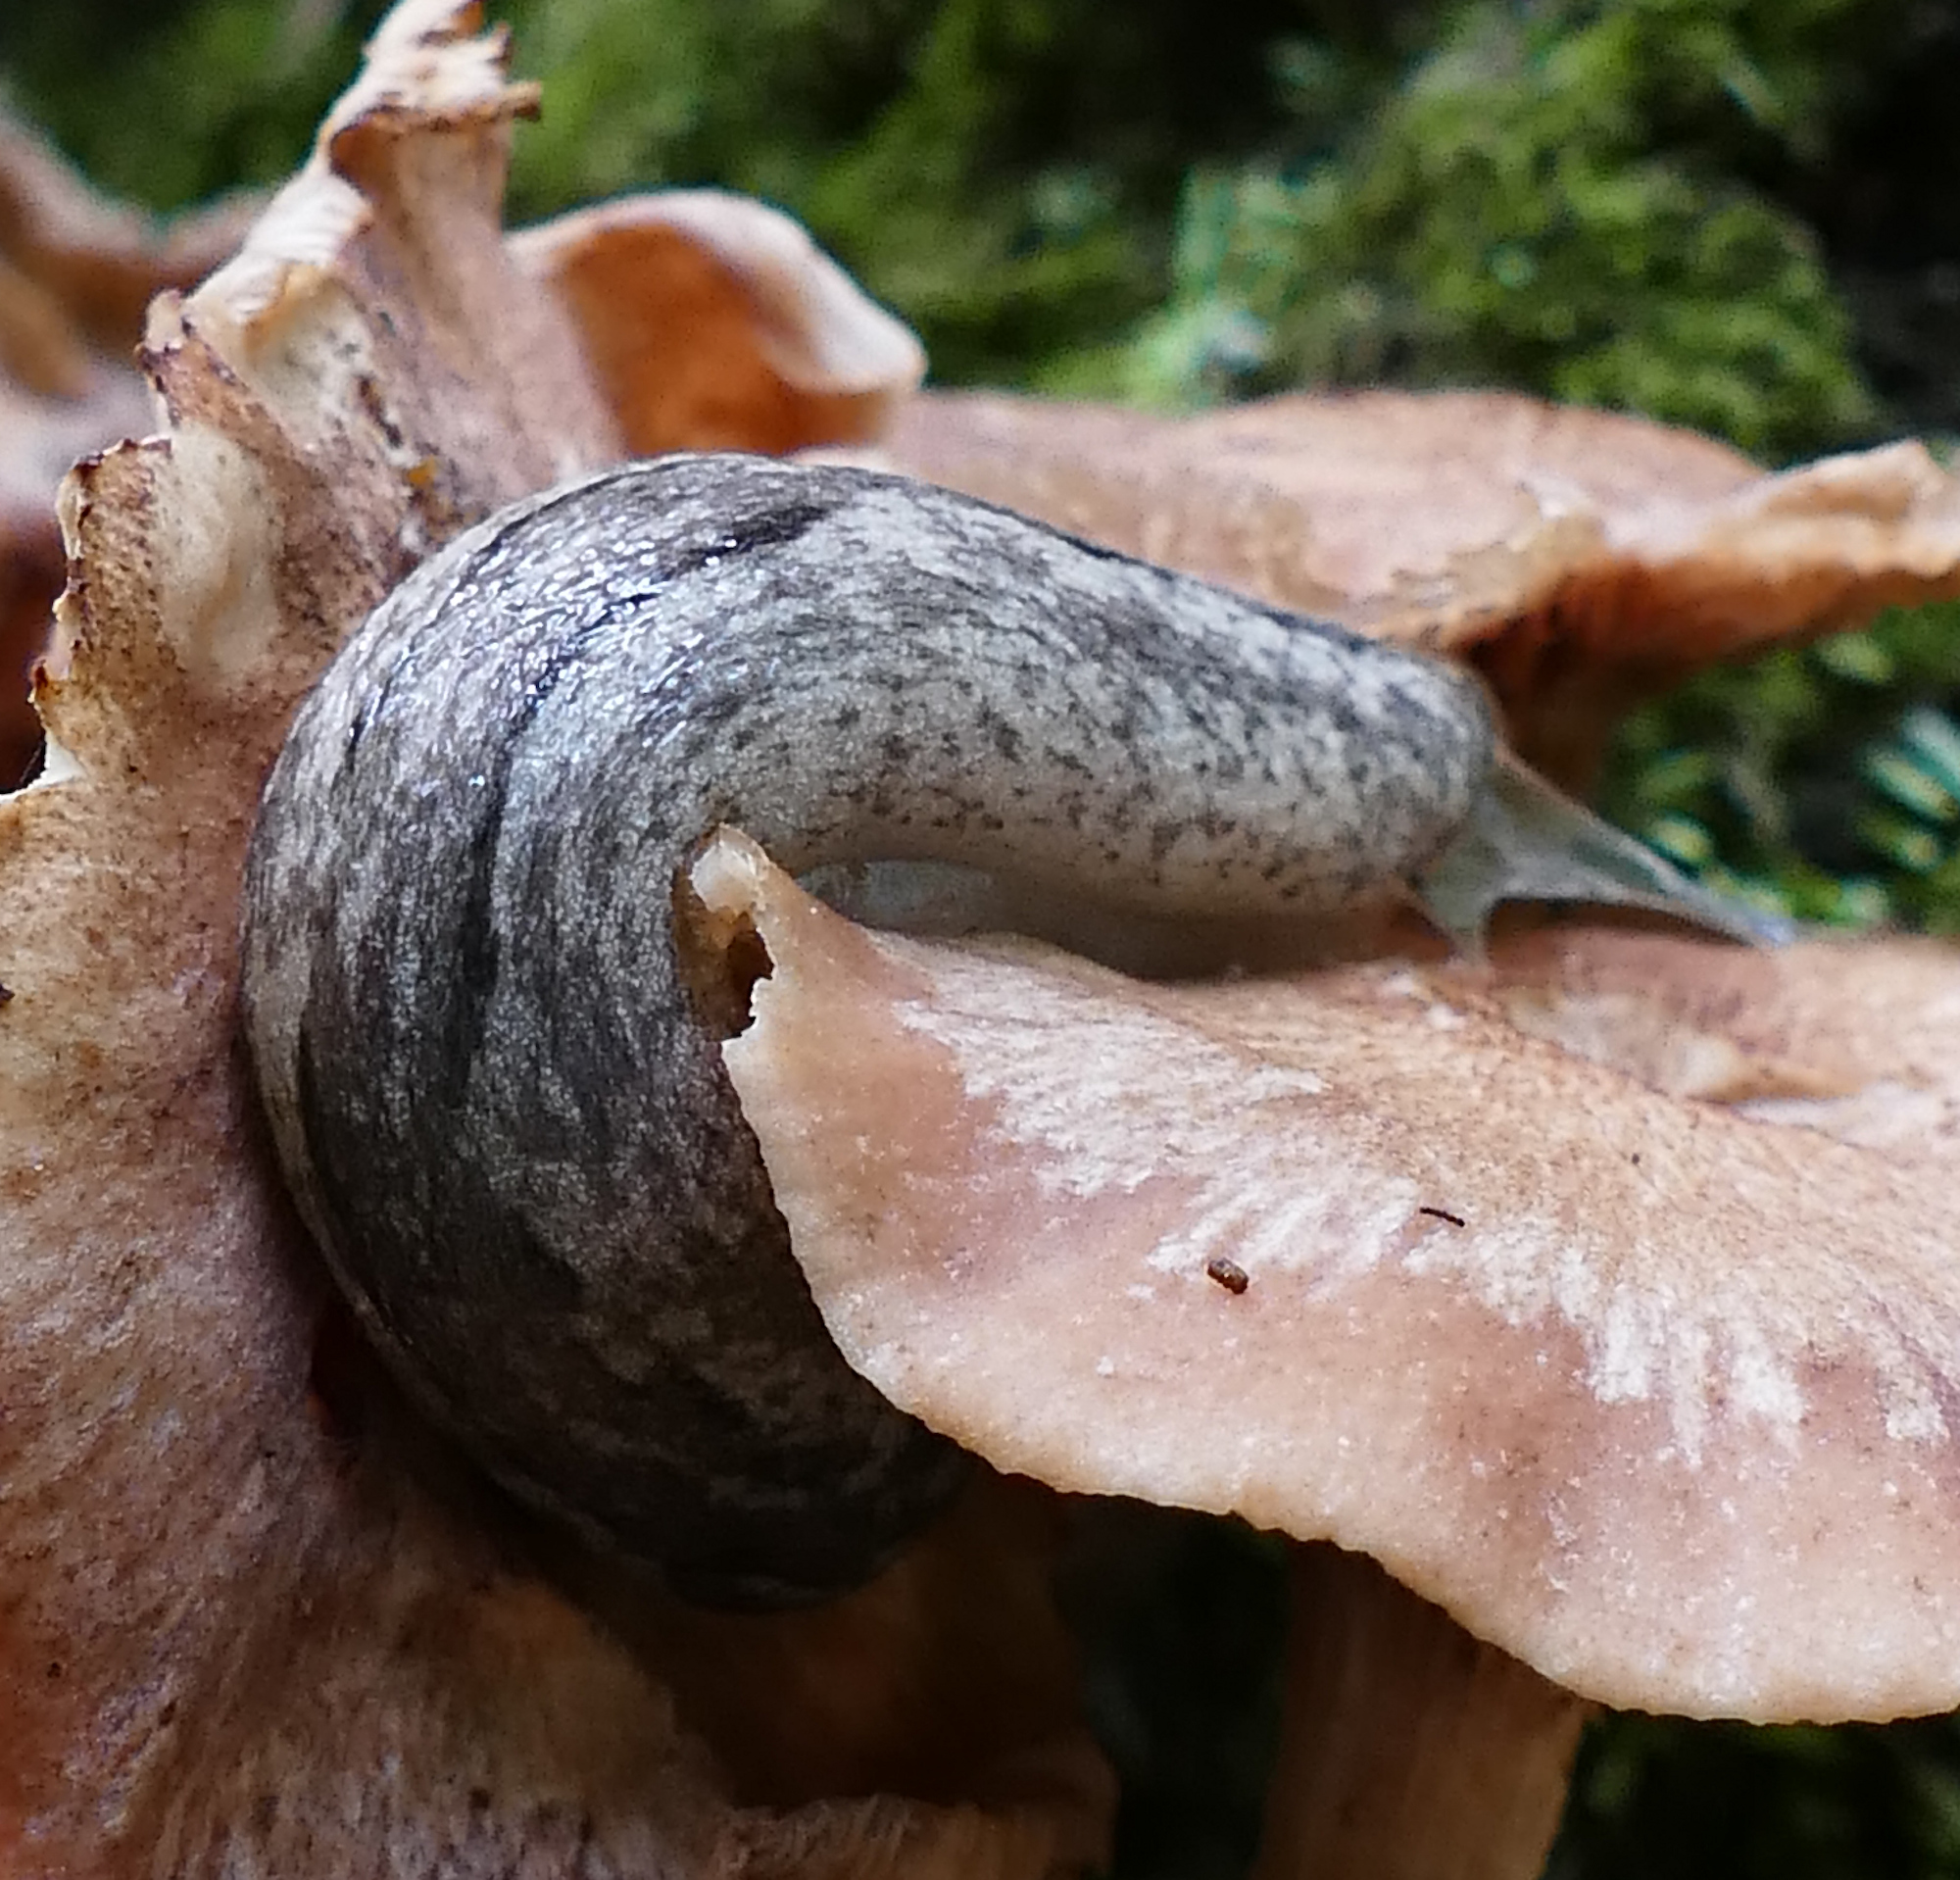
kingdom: Animalia
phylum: Mollusca
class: Gastropoda
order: Stylommatophora
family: Philomycidae
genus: Philomycus
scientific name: Philomycus carolinianus
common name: Carolina mantleslug
